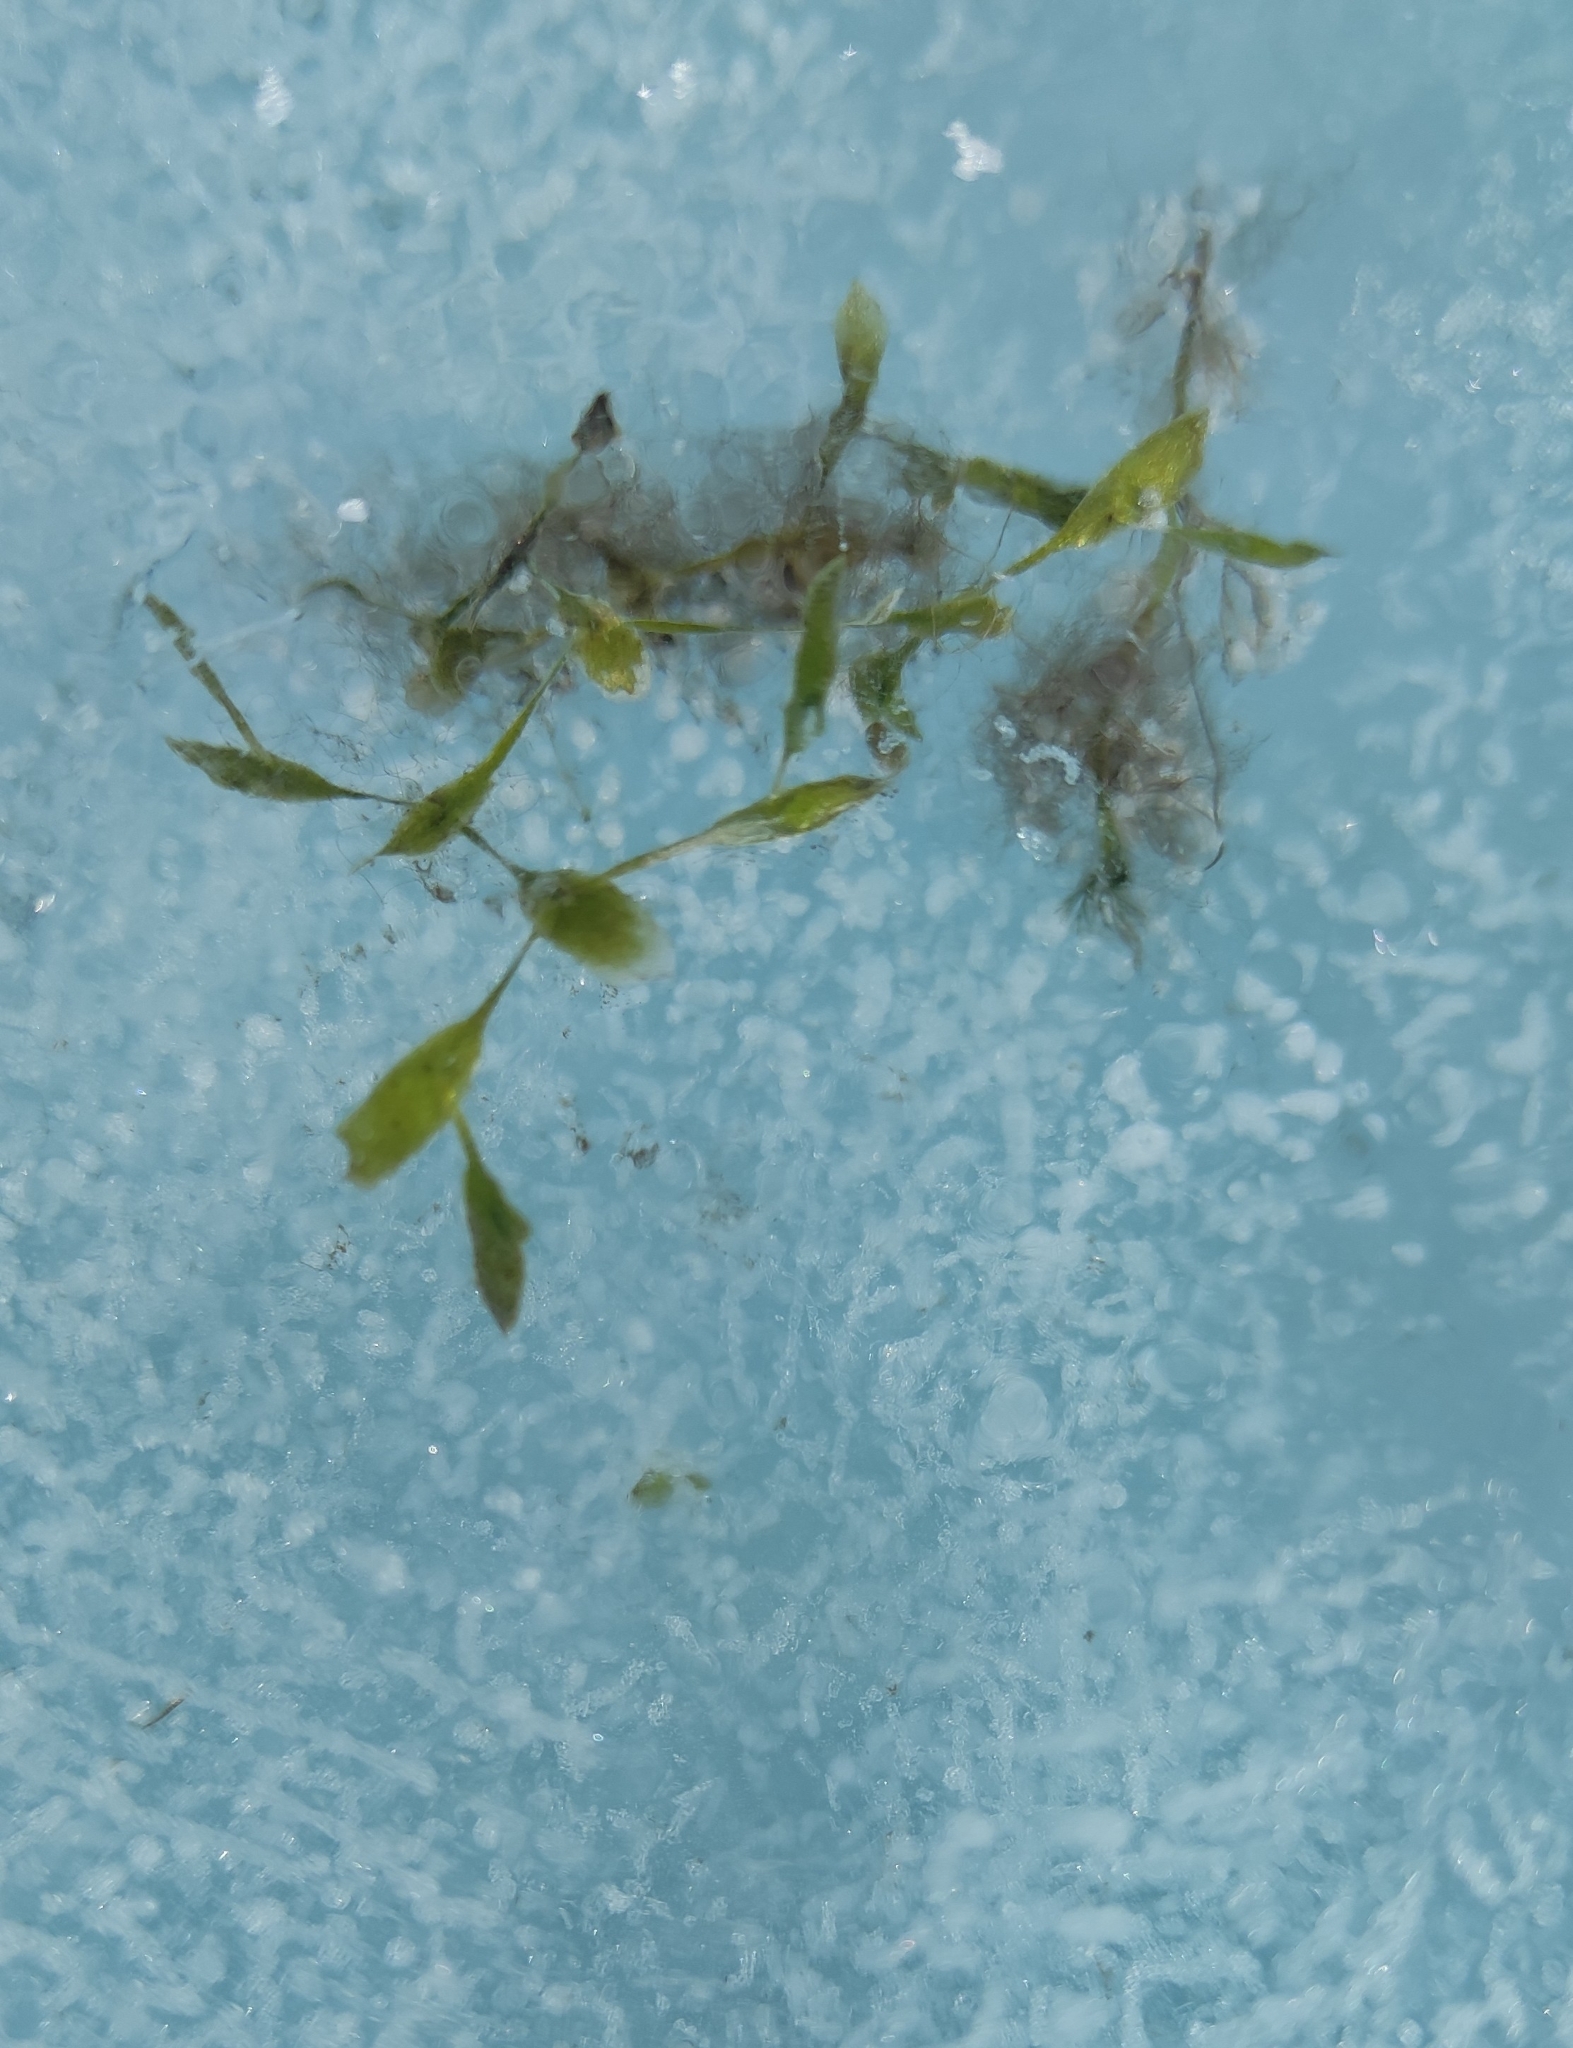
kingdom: Plantae
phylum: Tracheophyta
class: Liliopsida
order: Alismatales
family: Araceae
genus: Lemna
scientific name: Lemna trisulca
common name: Ivy-leaved duckweed
